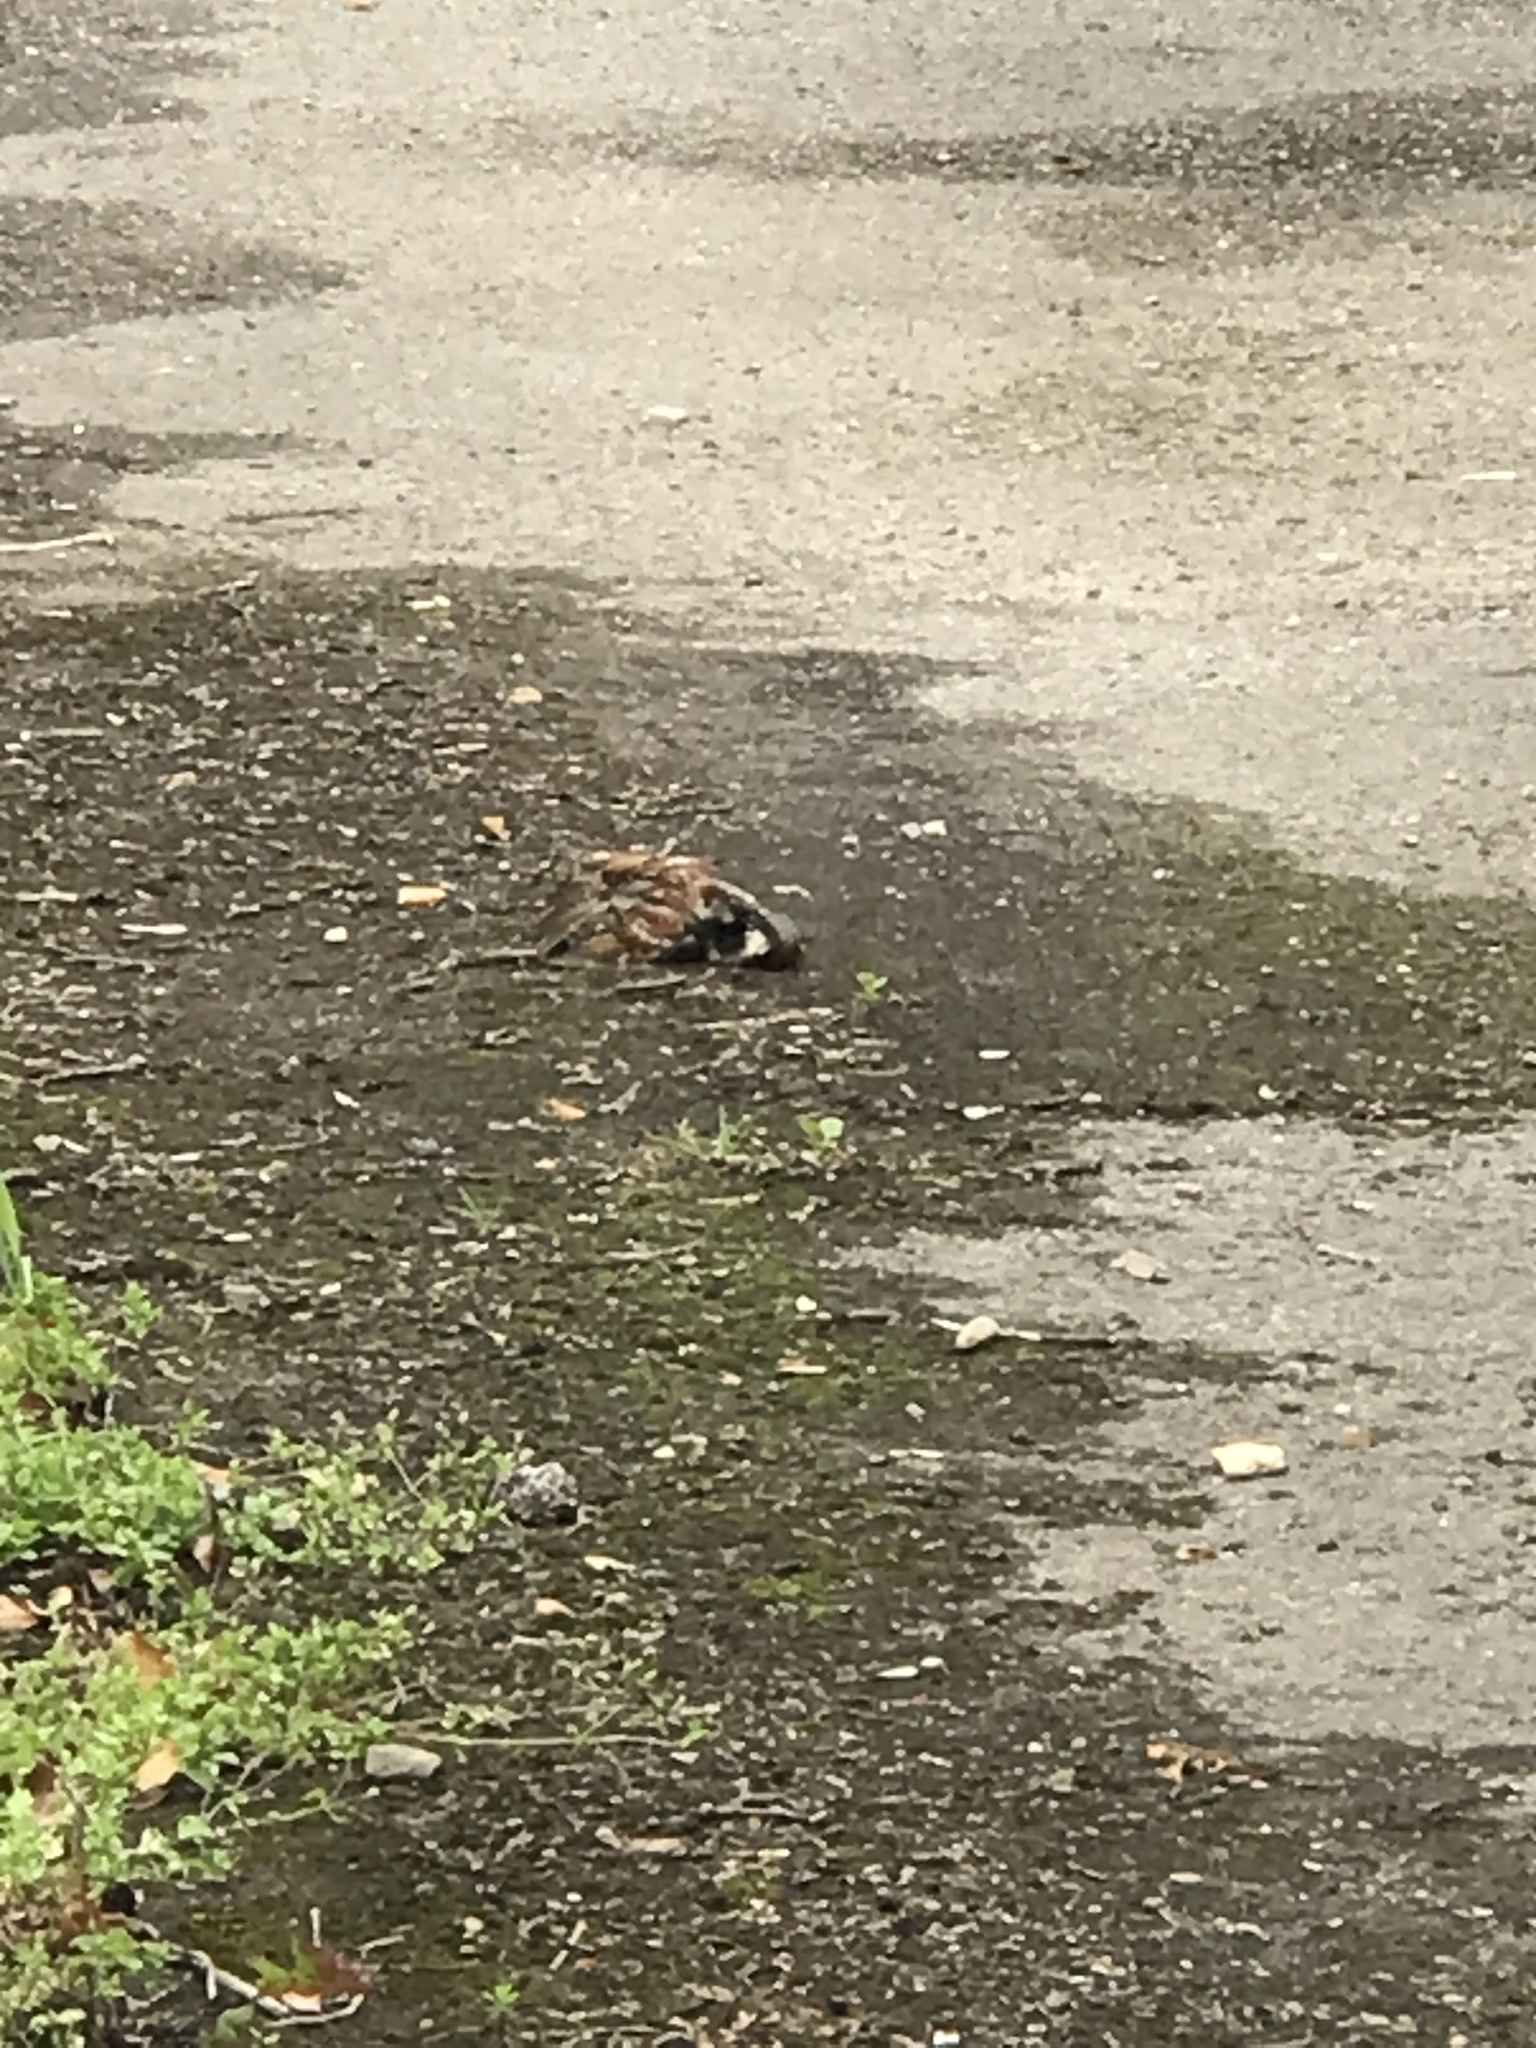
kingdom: Animalia
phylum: Chordata
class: Aves
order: Passeriformes
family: Passeridae
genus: Passer
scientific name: Passer domesticus
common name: House sparrow
